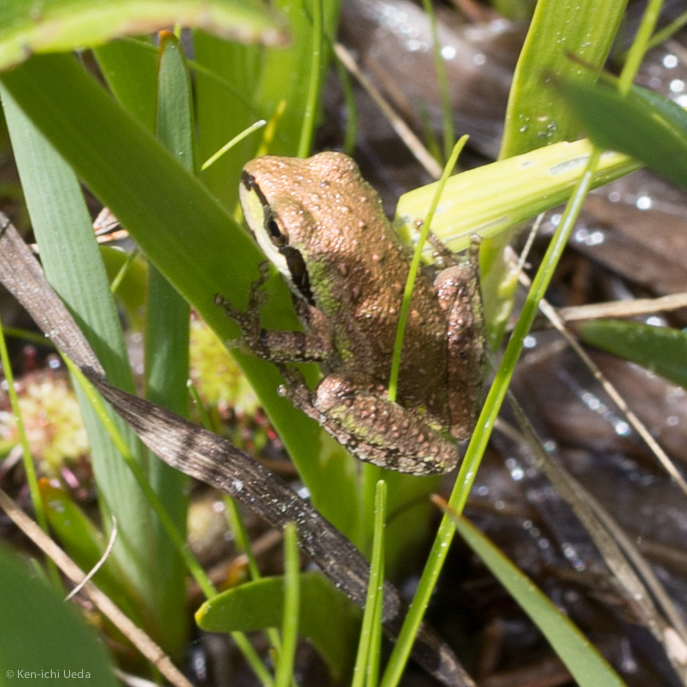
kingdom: Animalia
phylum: Chordata
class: Amphibia
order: Anura
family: Hylidae
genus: Pseudacris
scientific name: Pseudacris regilla
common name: Pacific chorus frog
